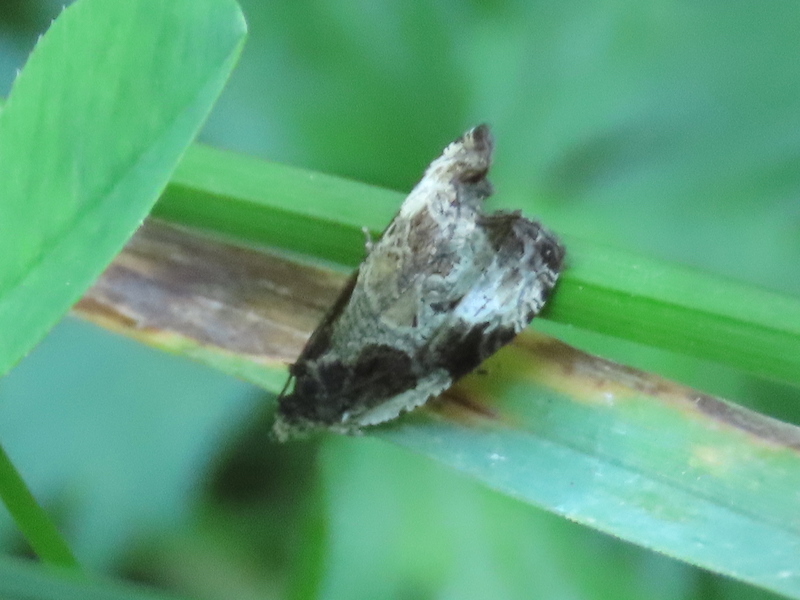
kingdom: Animalia
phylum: Arthropoda
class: Insecta
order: Lepidoptera
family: Tortricidae
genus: Olethreutes
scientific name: Olethreutes connectum
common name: Bunchberry leaffolder moth
